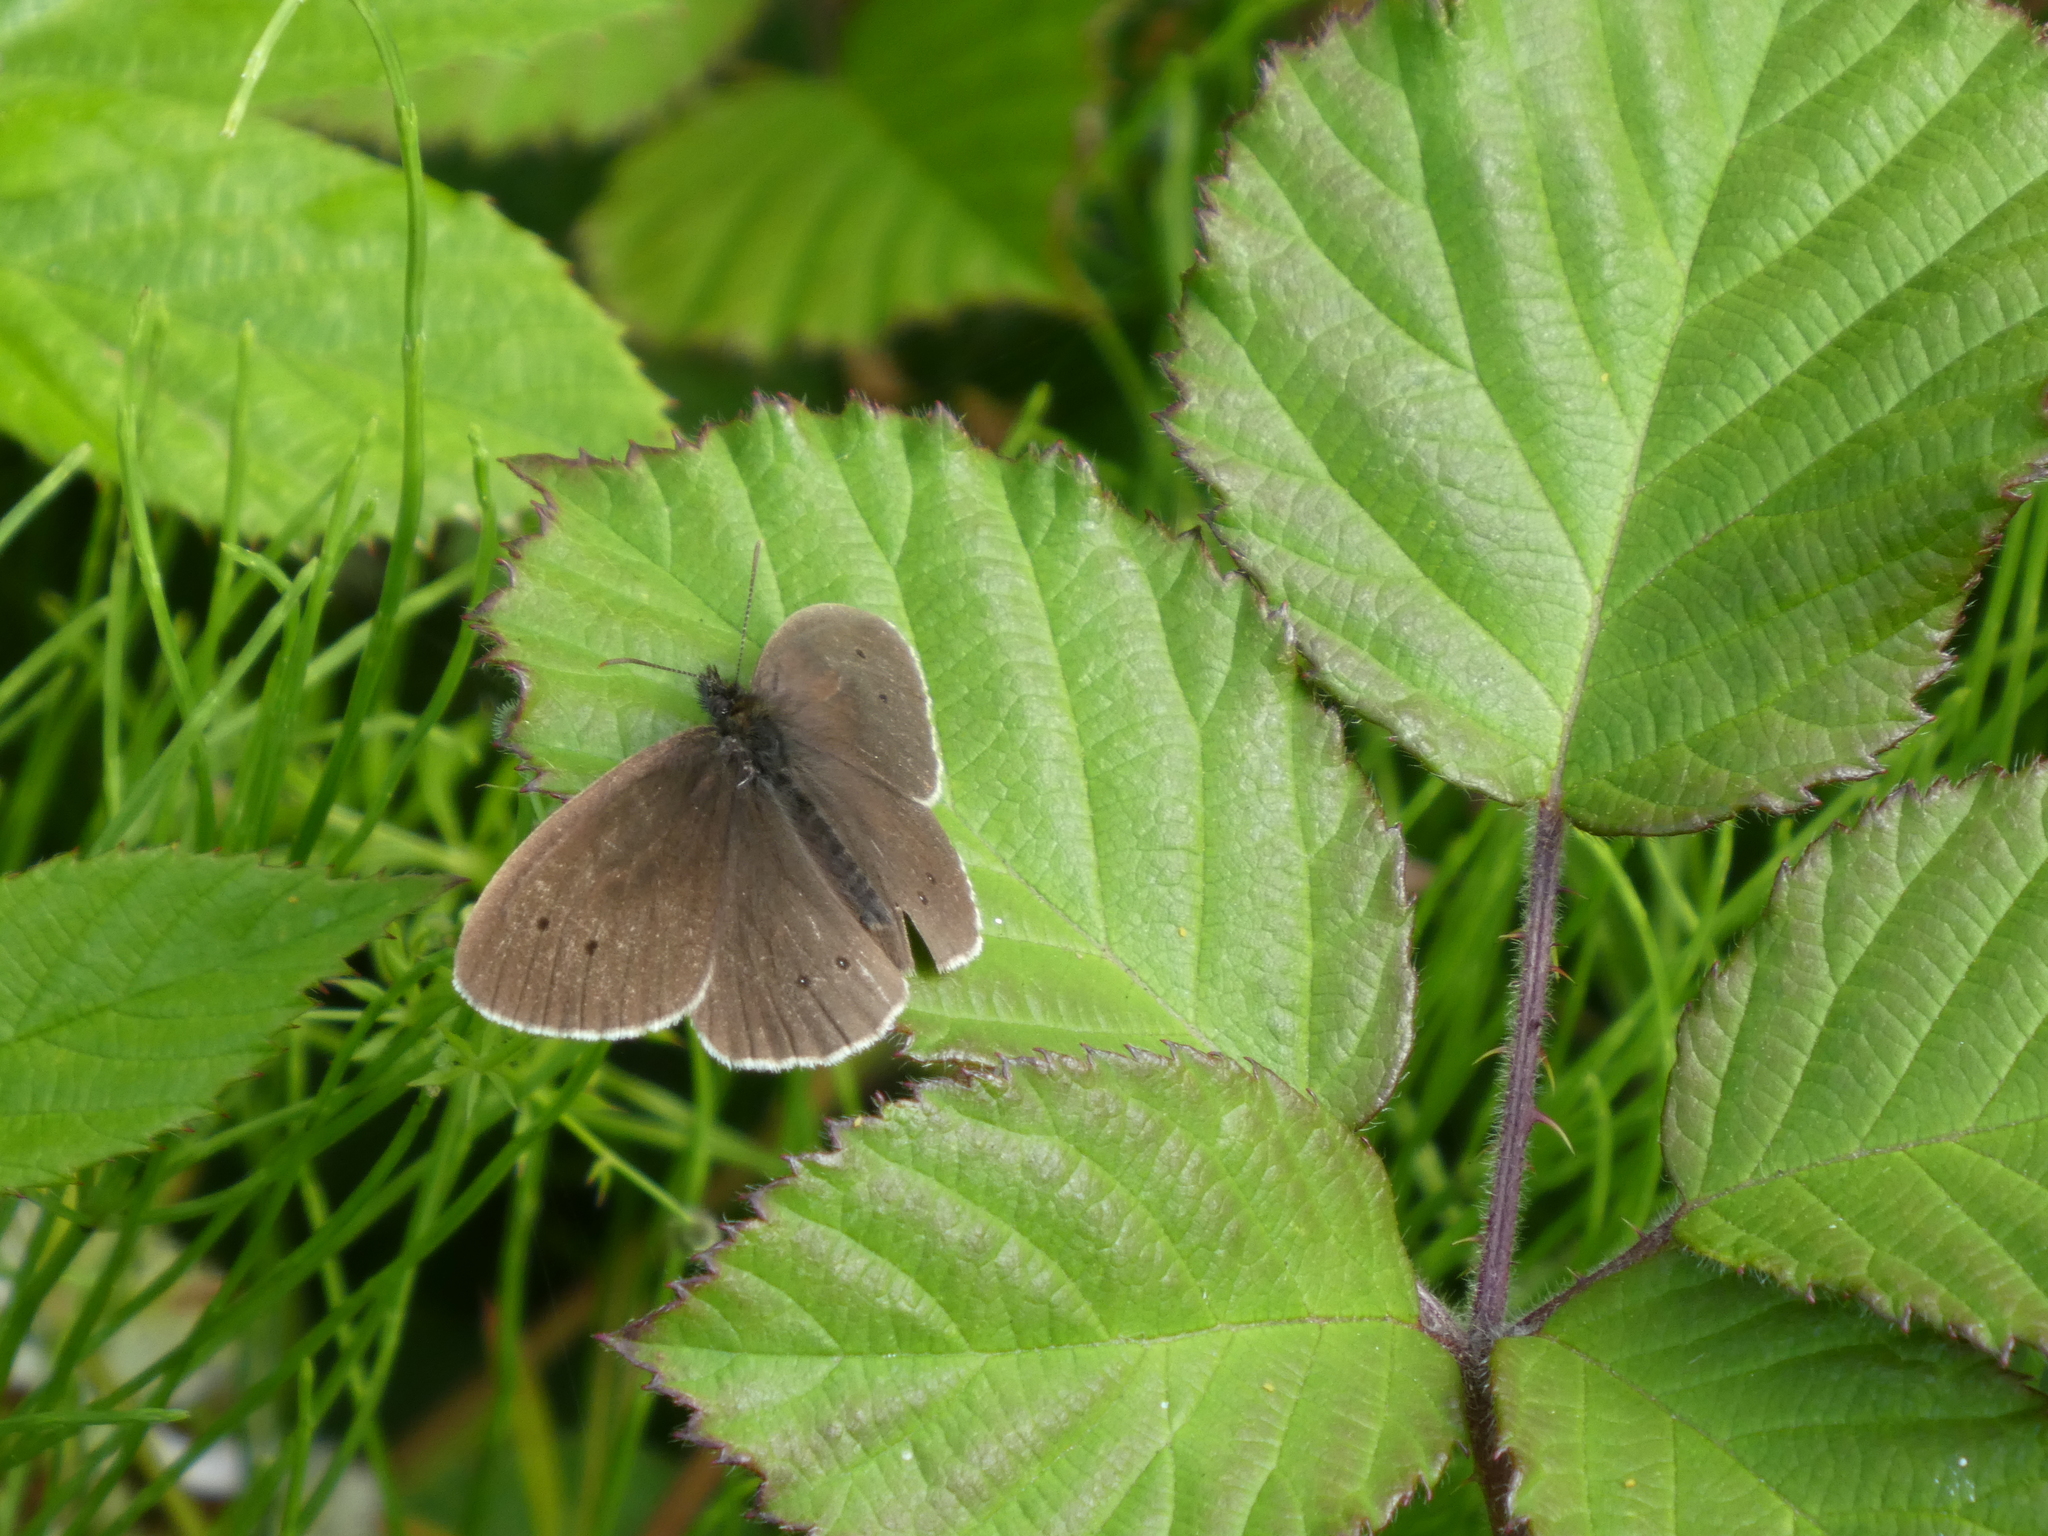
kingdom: Animalia
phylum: Arthropoda
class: Insecta
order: Lepidoptera
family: Nymphalidae
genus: Aphantopus
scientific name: Aphantopus hyperantus
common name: Ringlet
